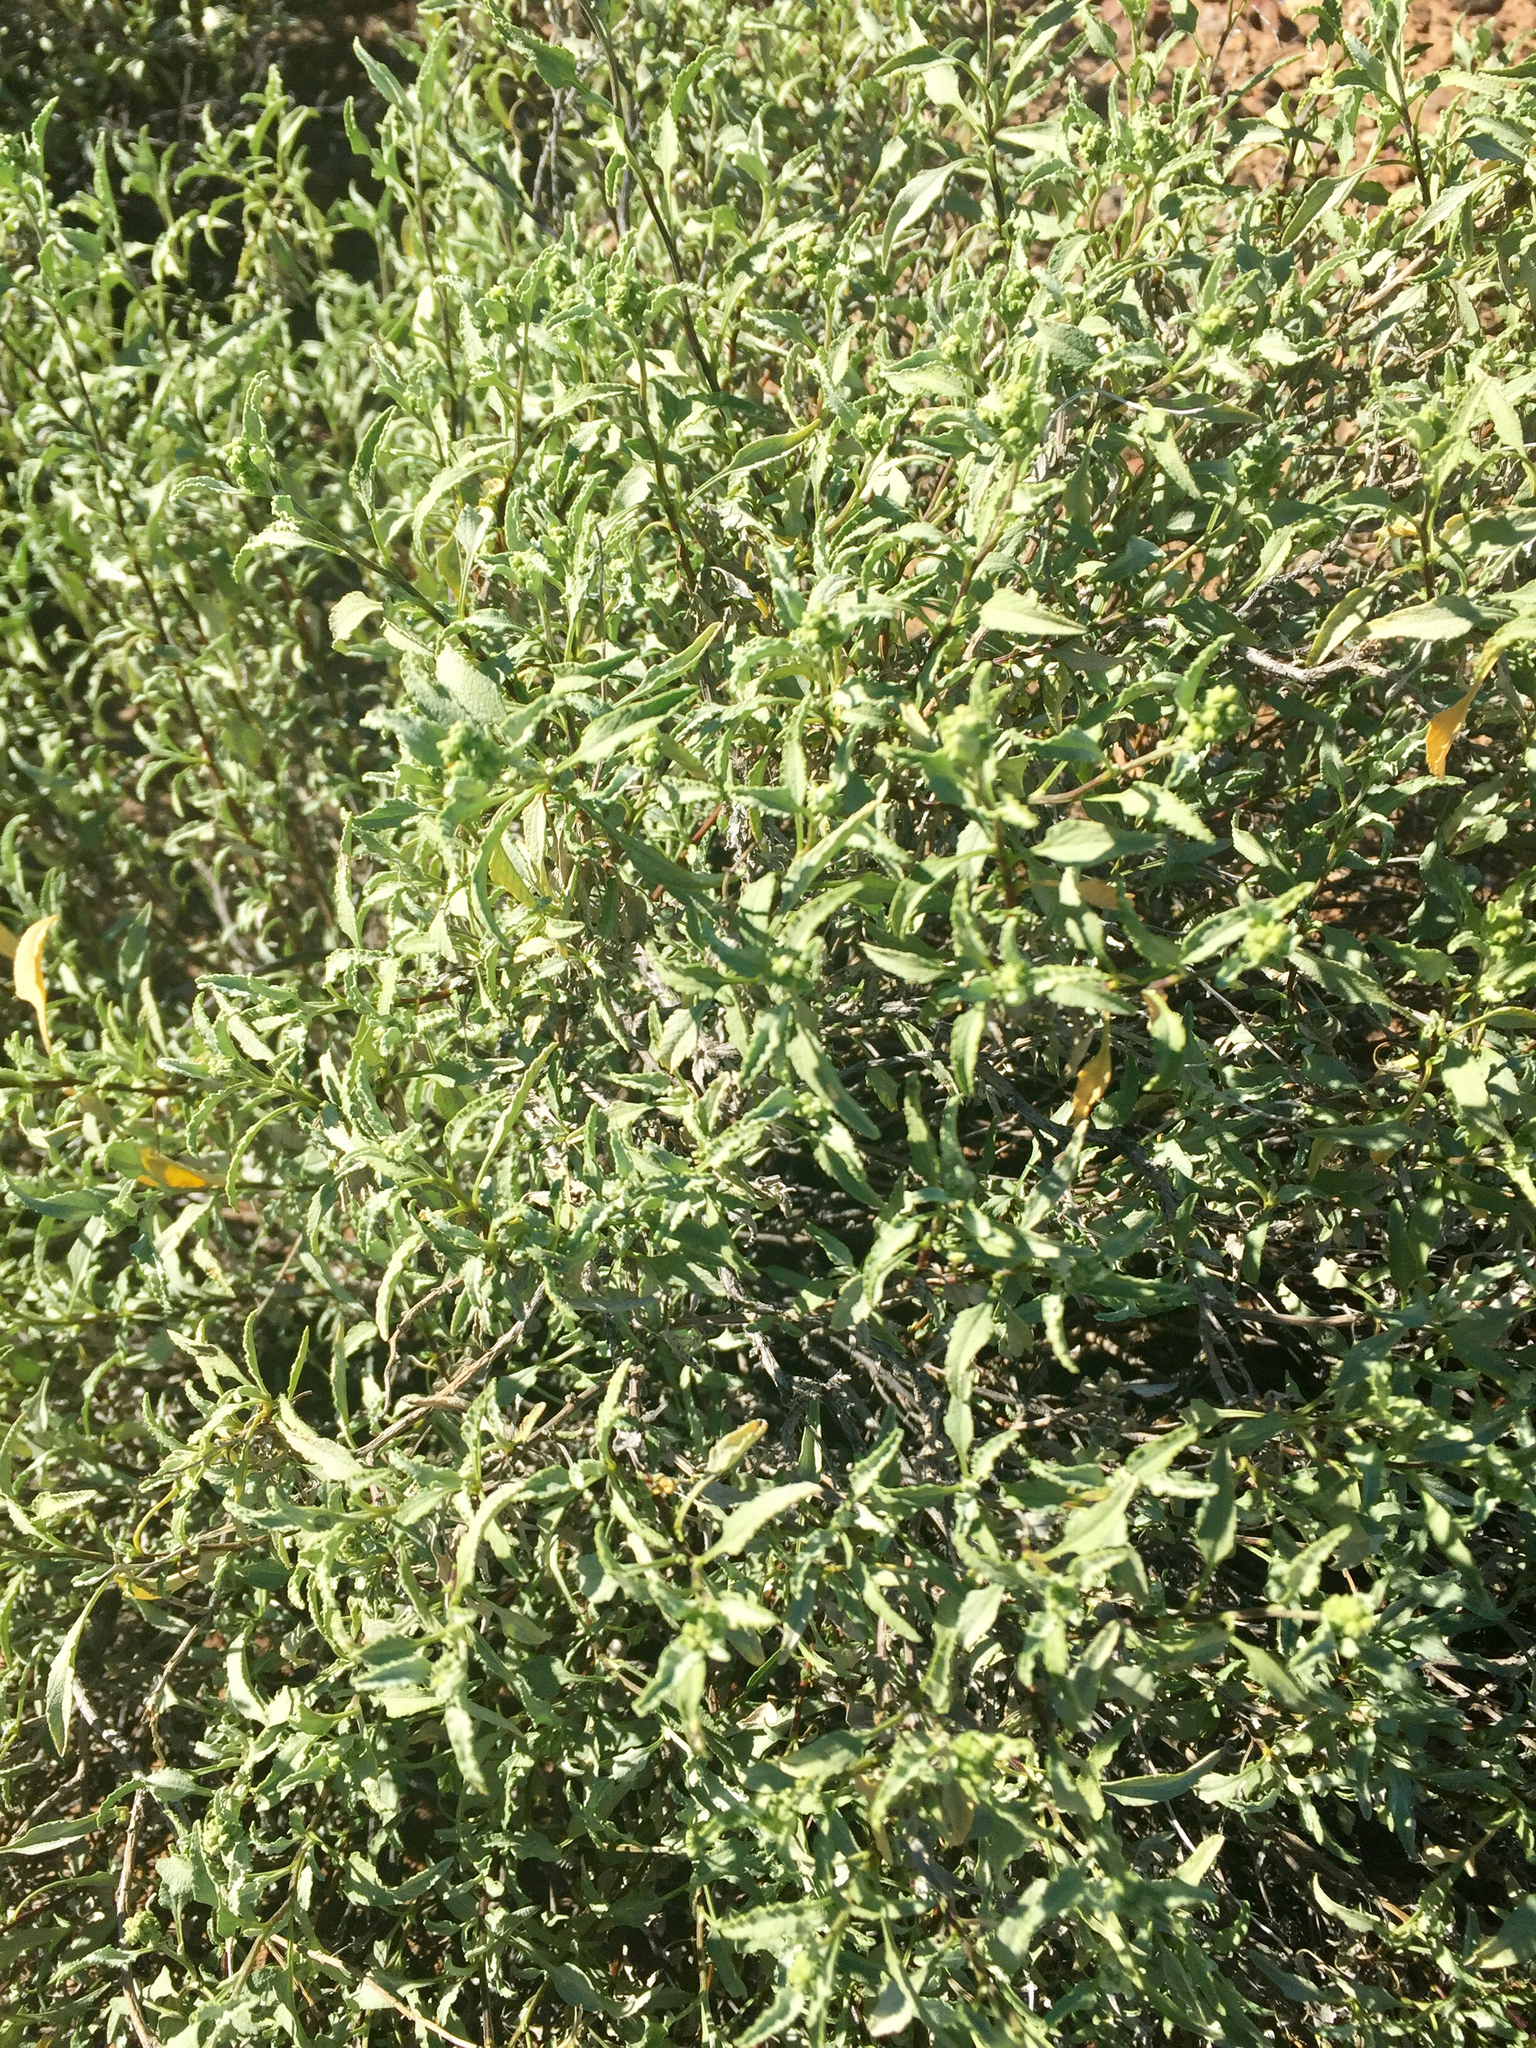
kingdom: Plantae
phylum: Tracheophyta
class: Magnoliopsida
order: Asterales
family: Asteraceae
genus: Ambrosia
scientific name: Ambrosia deltoidea
